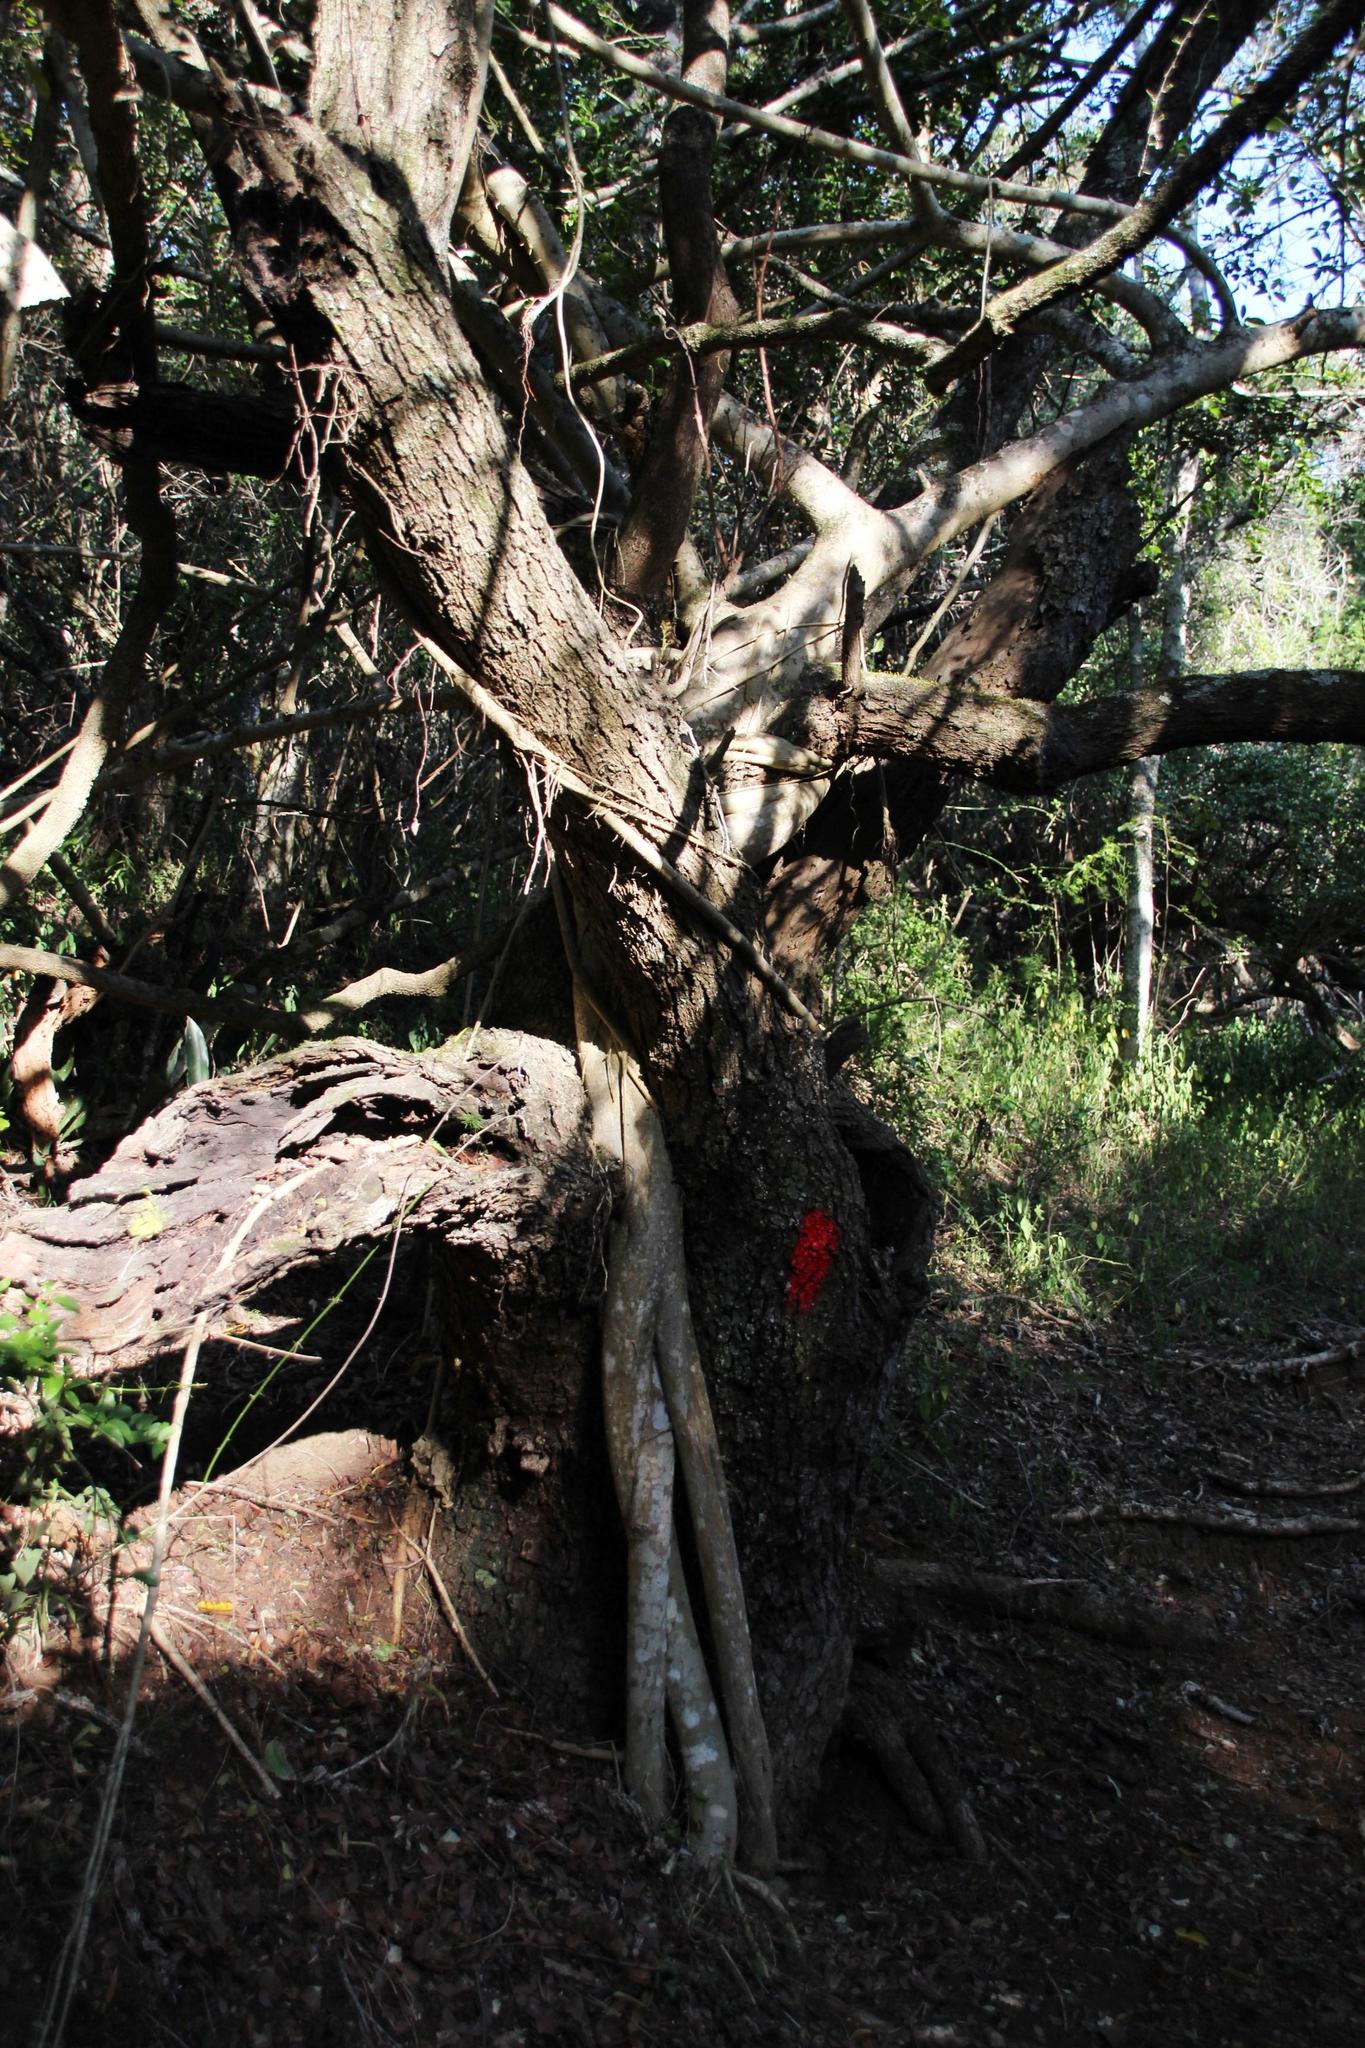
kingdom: Plantae
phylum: Tracheophyta
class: Magnoliopsida
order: Fabales
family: Fabaceae
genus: Schotia
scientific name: Schotia latifolia
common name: Bush boer-bean
